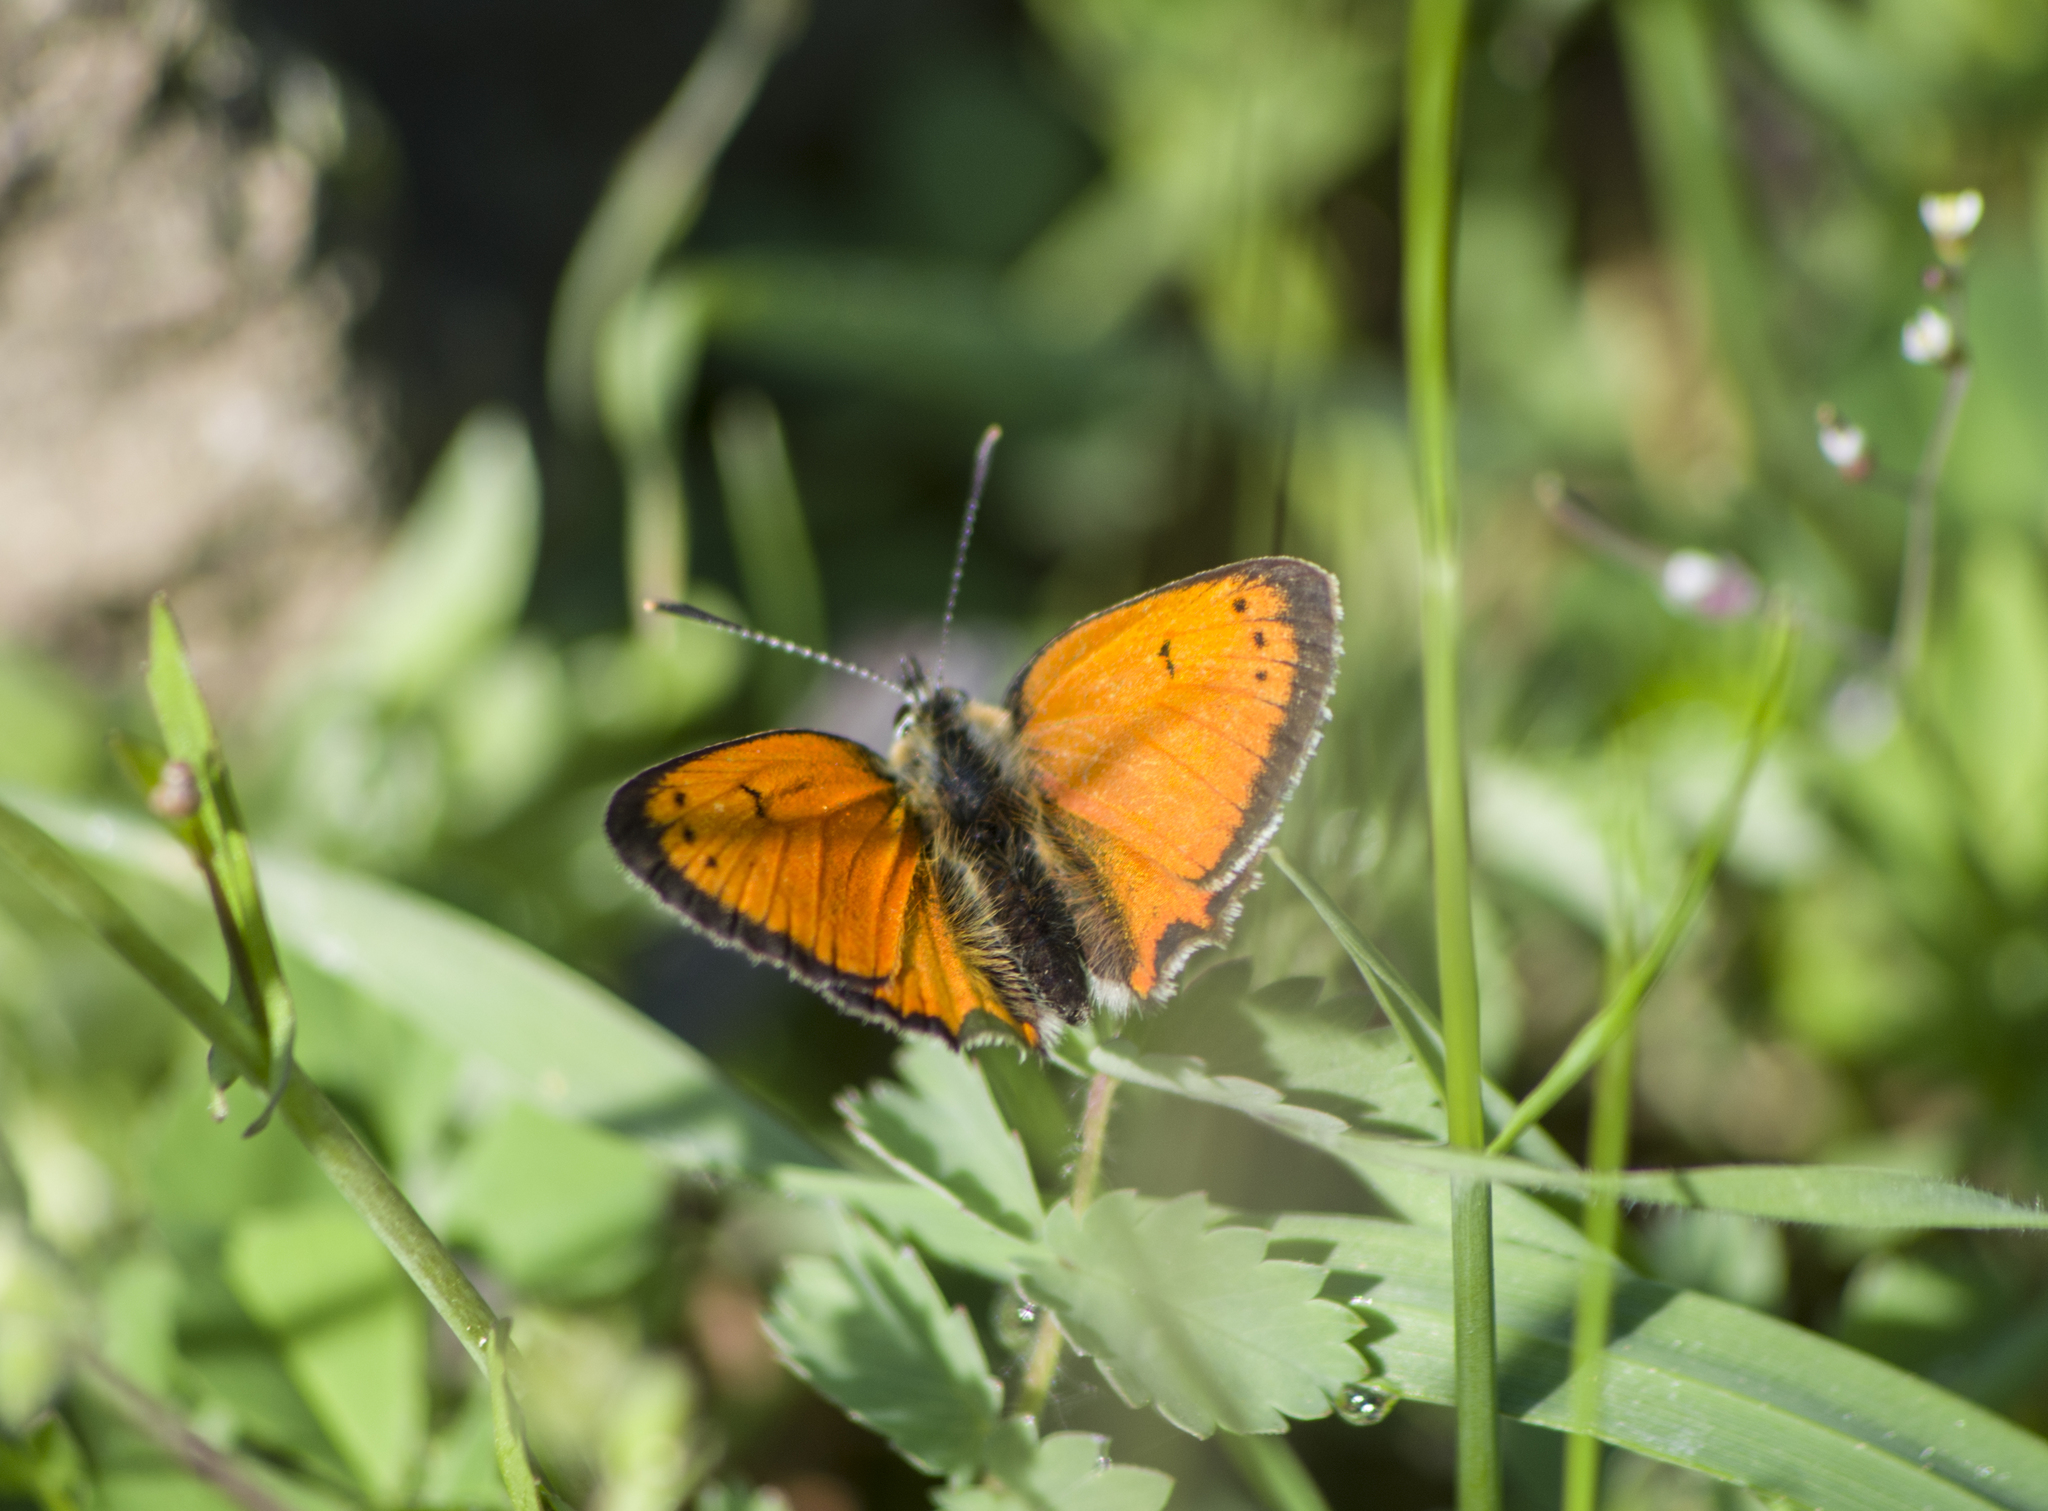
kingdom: Animalia
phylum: Arthropoda
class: Insecta
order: Lepidoptera
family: Lycaenidae
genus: Polyommatus
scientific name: Polyommatus ottomanus
